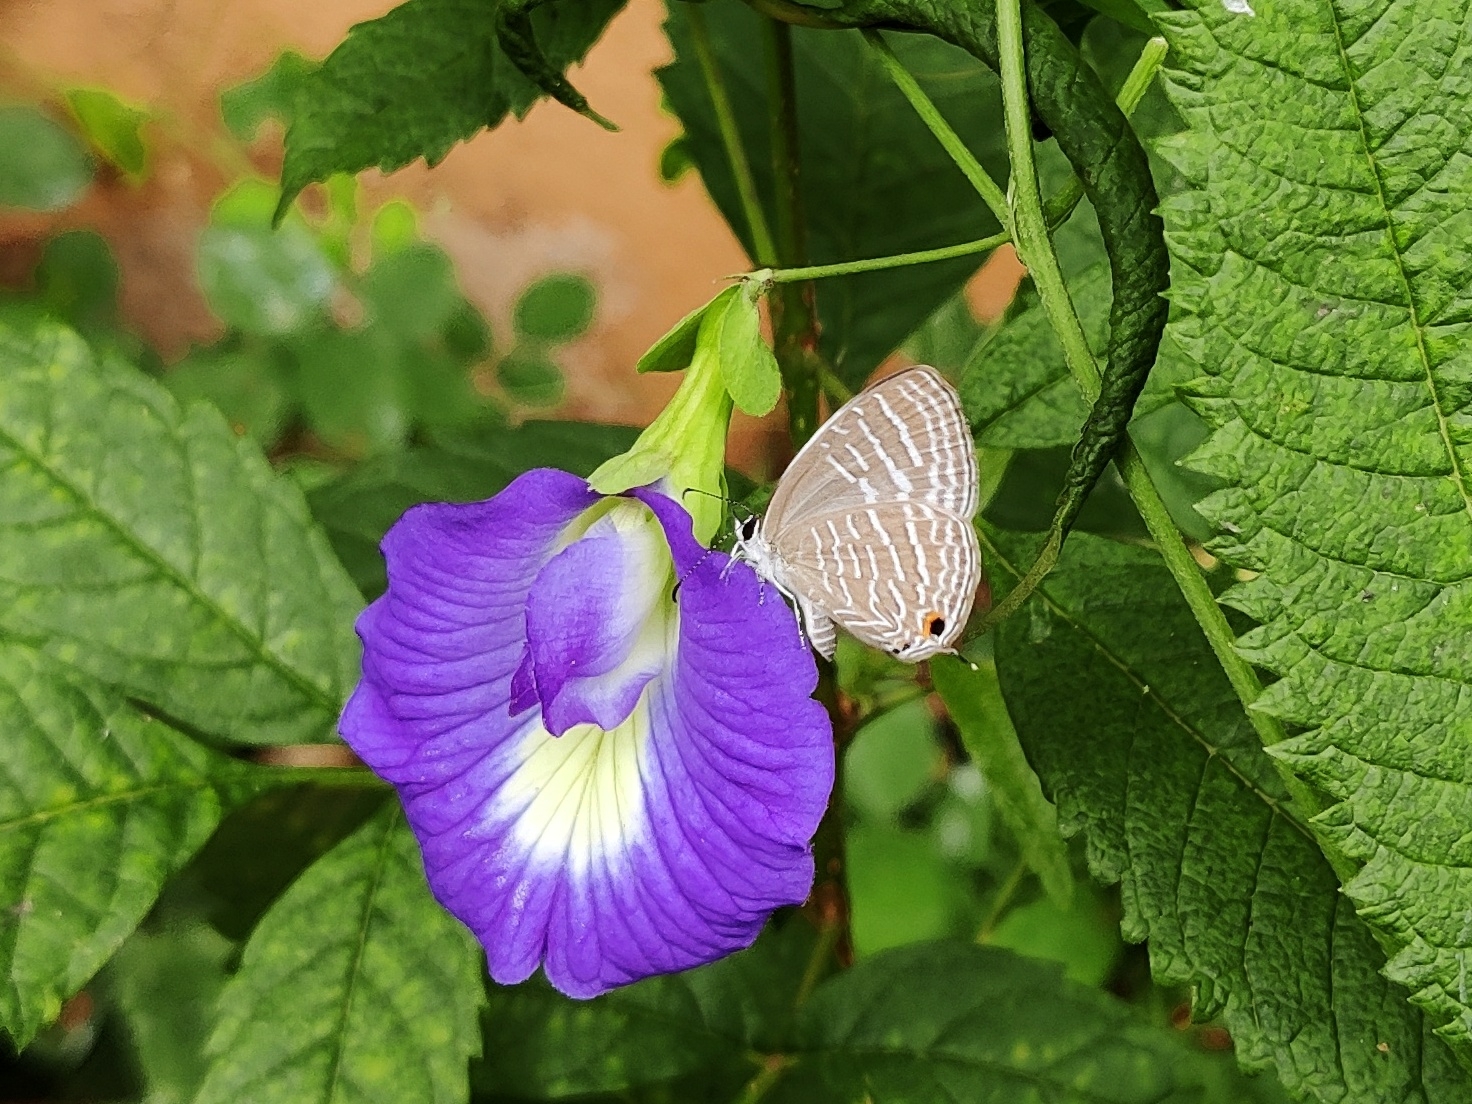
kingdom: Animalia
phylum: Arthropoda
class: Insecta
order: Lepidoptera
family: Lycaenidae
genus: Jamides
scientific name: Jamides celeno
